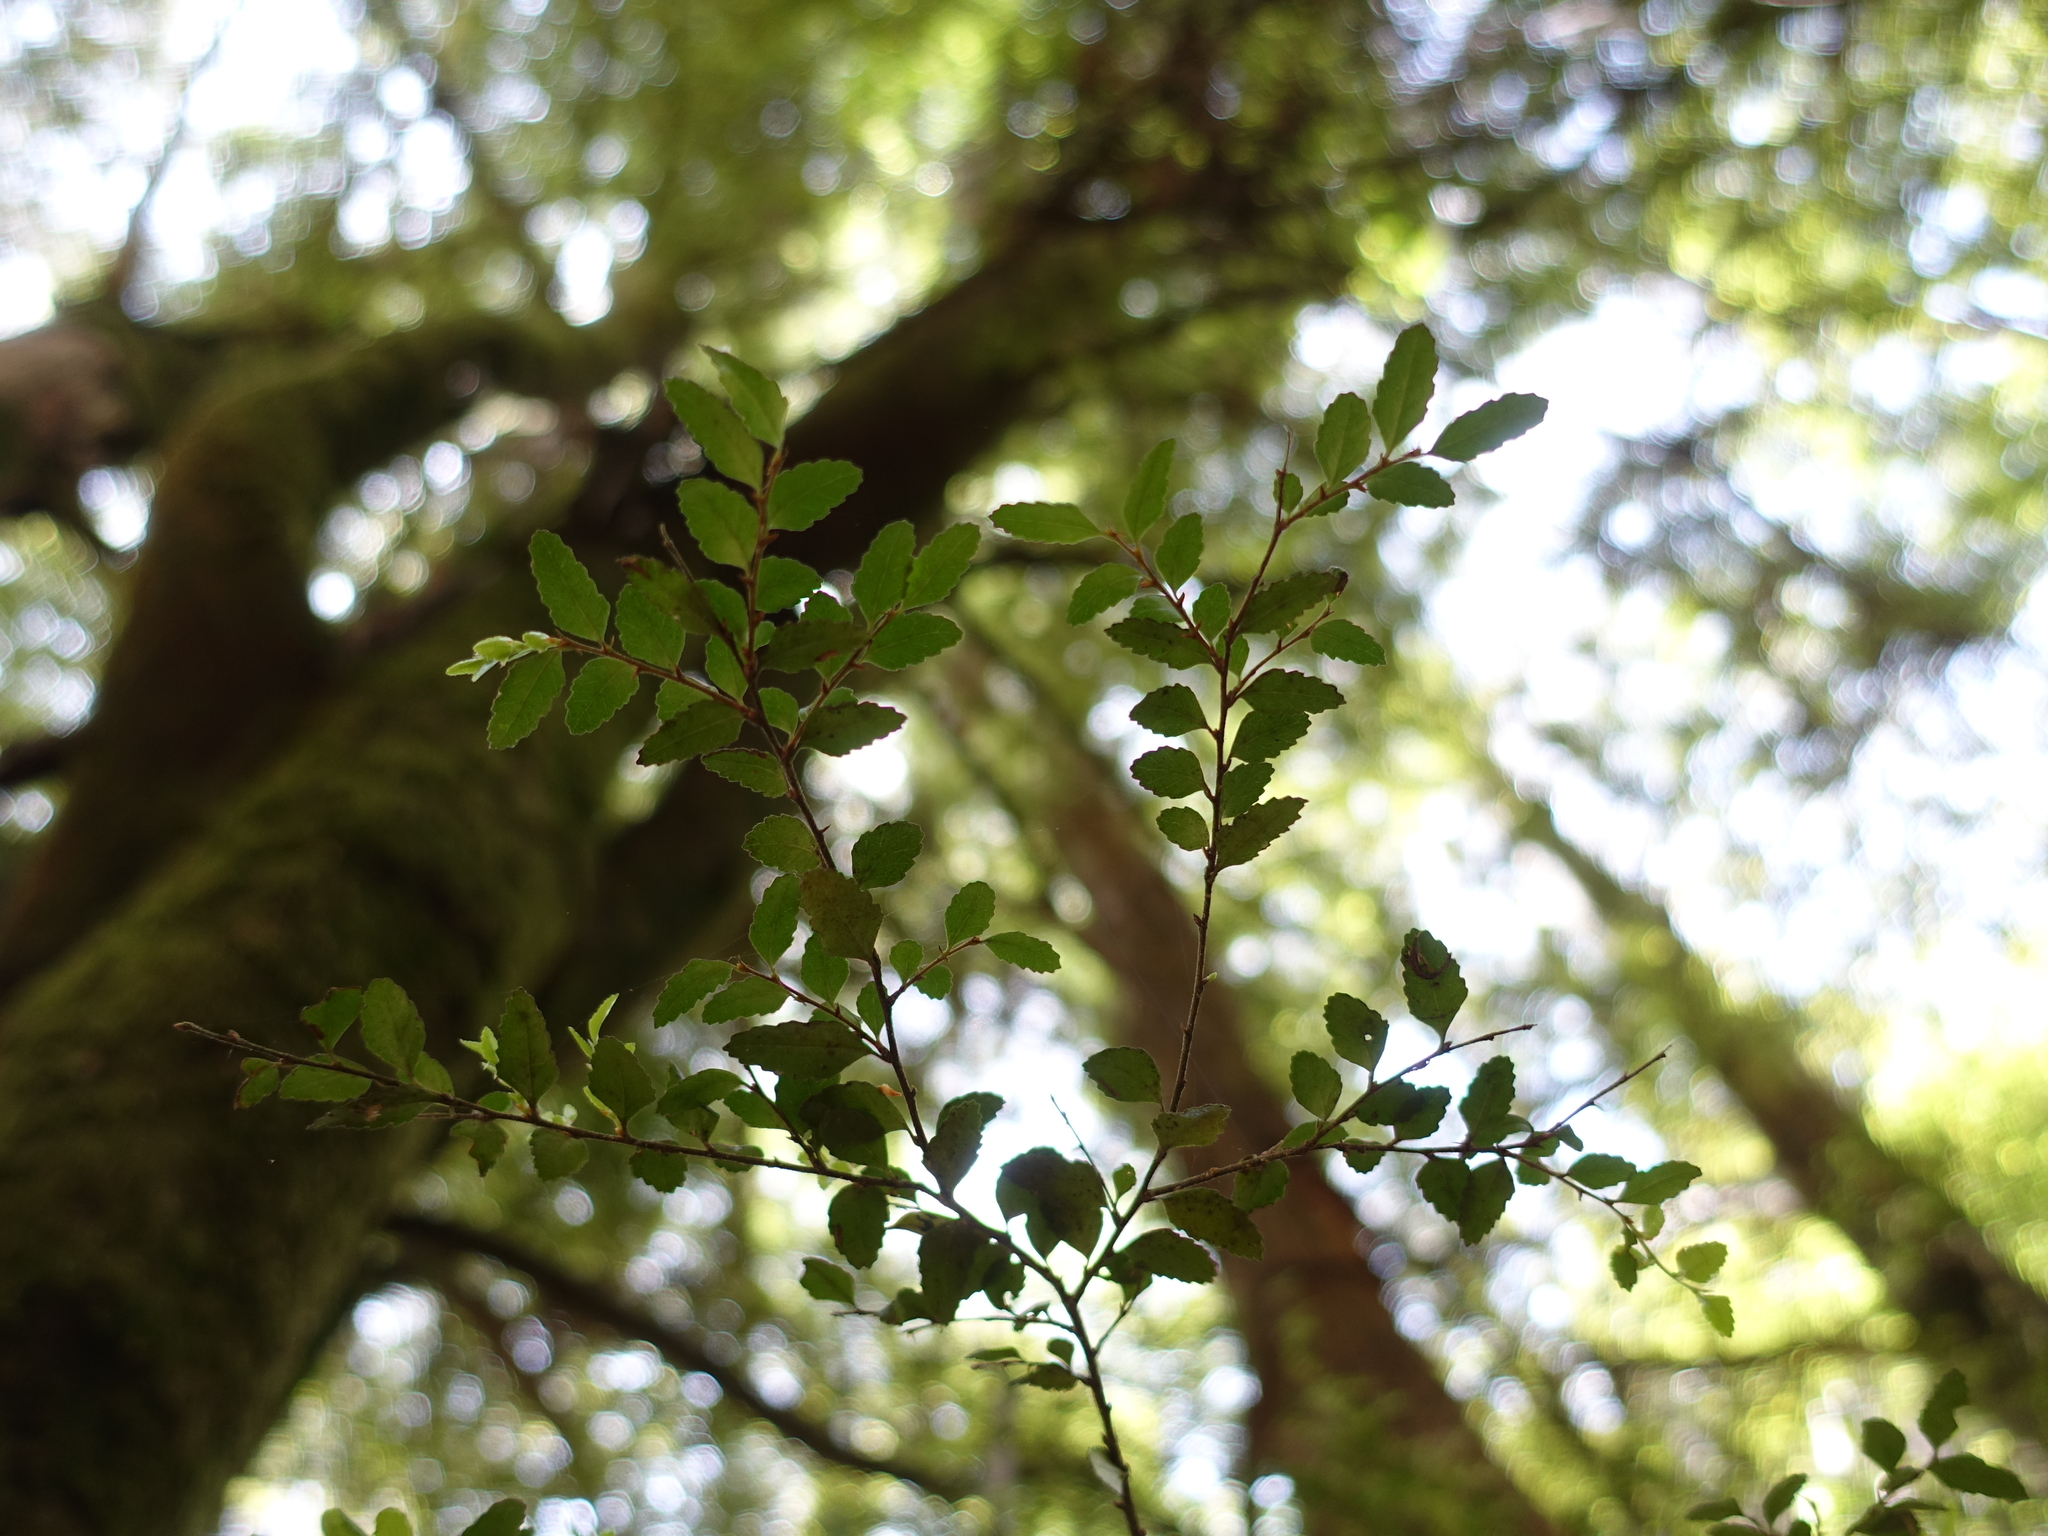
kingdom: Plantae
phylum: Tracheophyta
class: Magnoliopsida
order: Fagales
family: Nothofagaceae
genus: Nothofagus
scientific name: Nothofagus cunninghamii
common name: Myrtle beech
